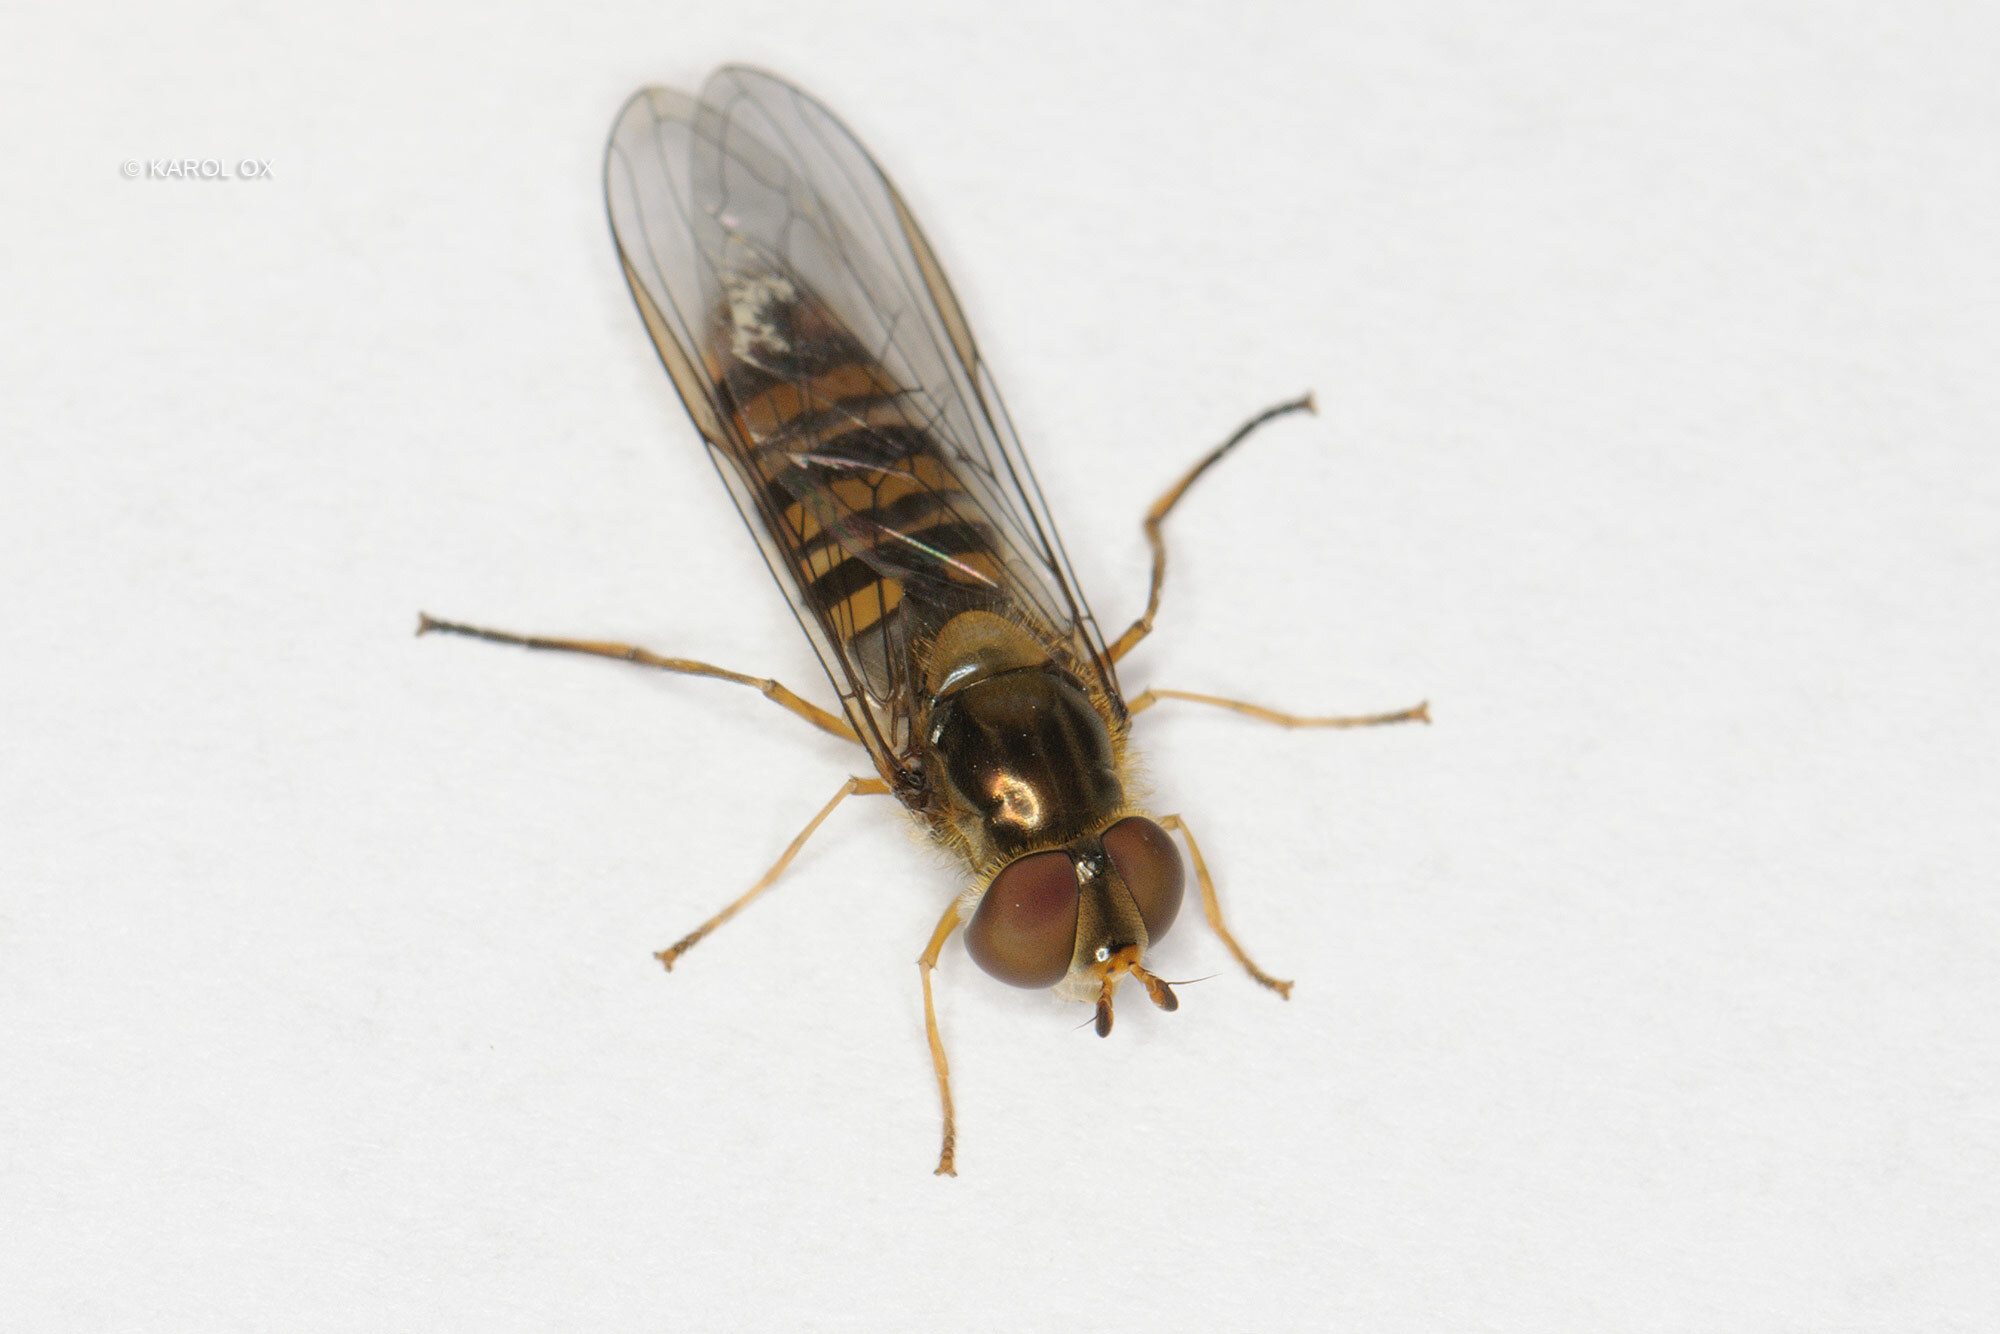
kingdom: Animalia
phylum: Arthropoda
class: Insecta
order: Diptera
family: Syrphidae
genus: Episyrphus
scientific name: Episyrphus balteatus
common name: Marmalade hoverfly
